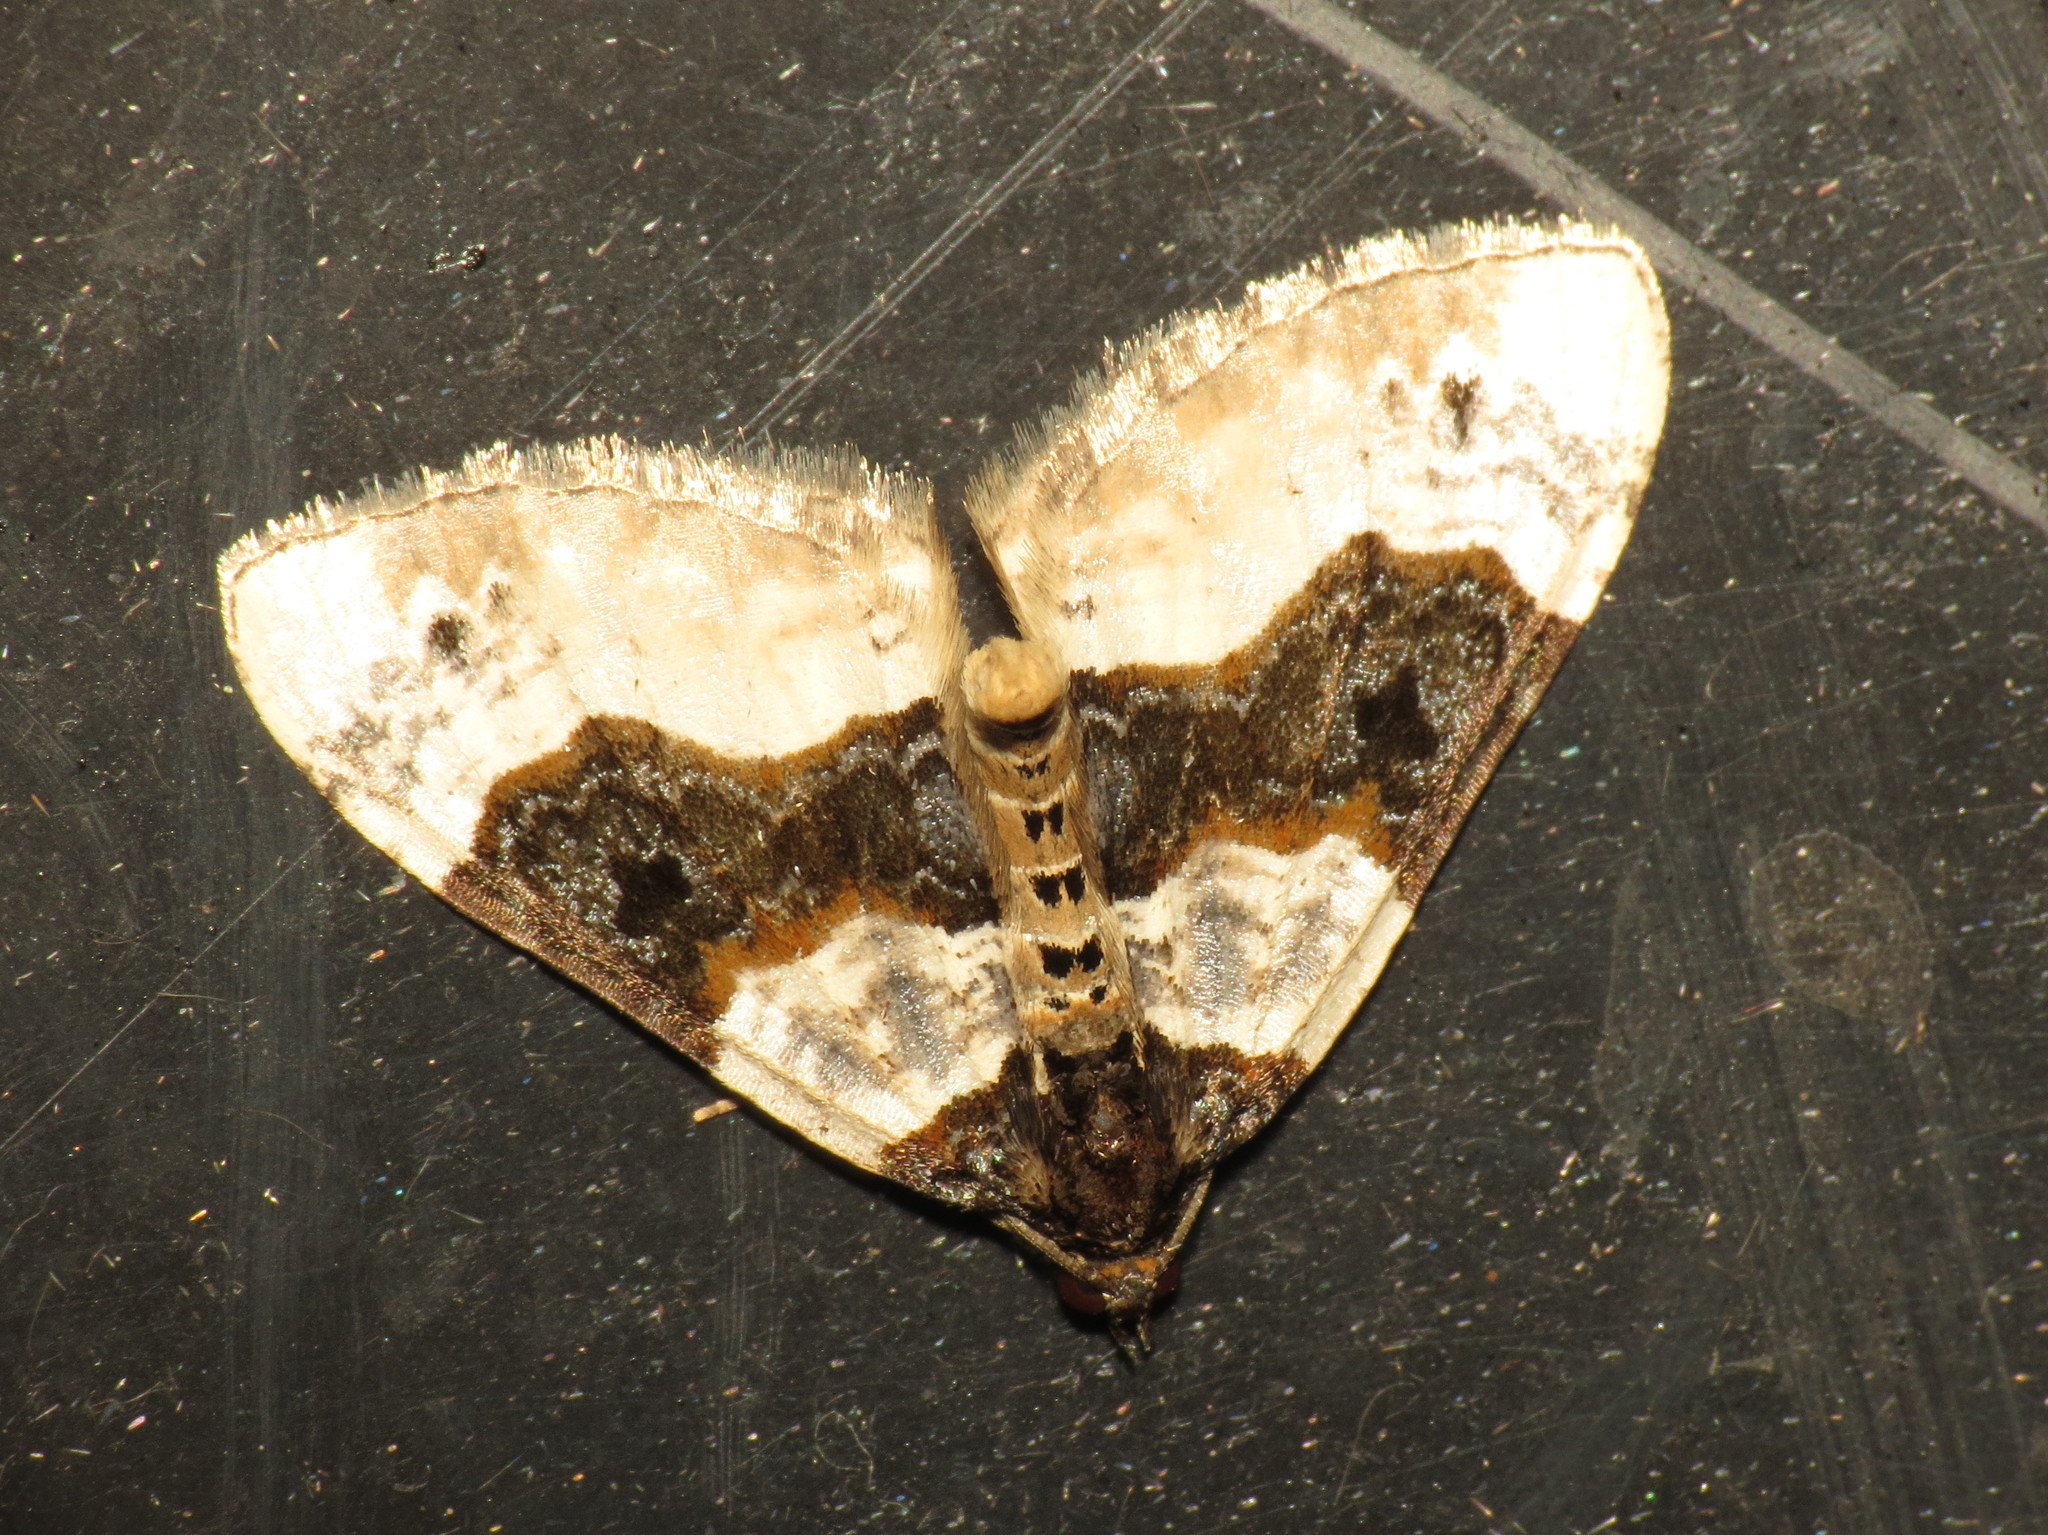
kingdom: Animalia
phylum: Arthropoda
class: Insecta
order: Lepidoptera
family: Geometridae
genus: Cosmorhoe
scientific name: Cosmorhoe ocellata
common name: Purple bar
